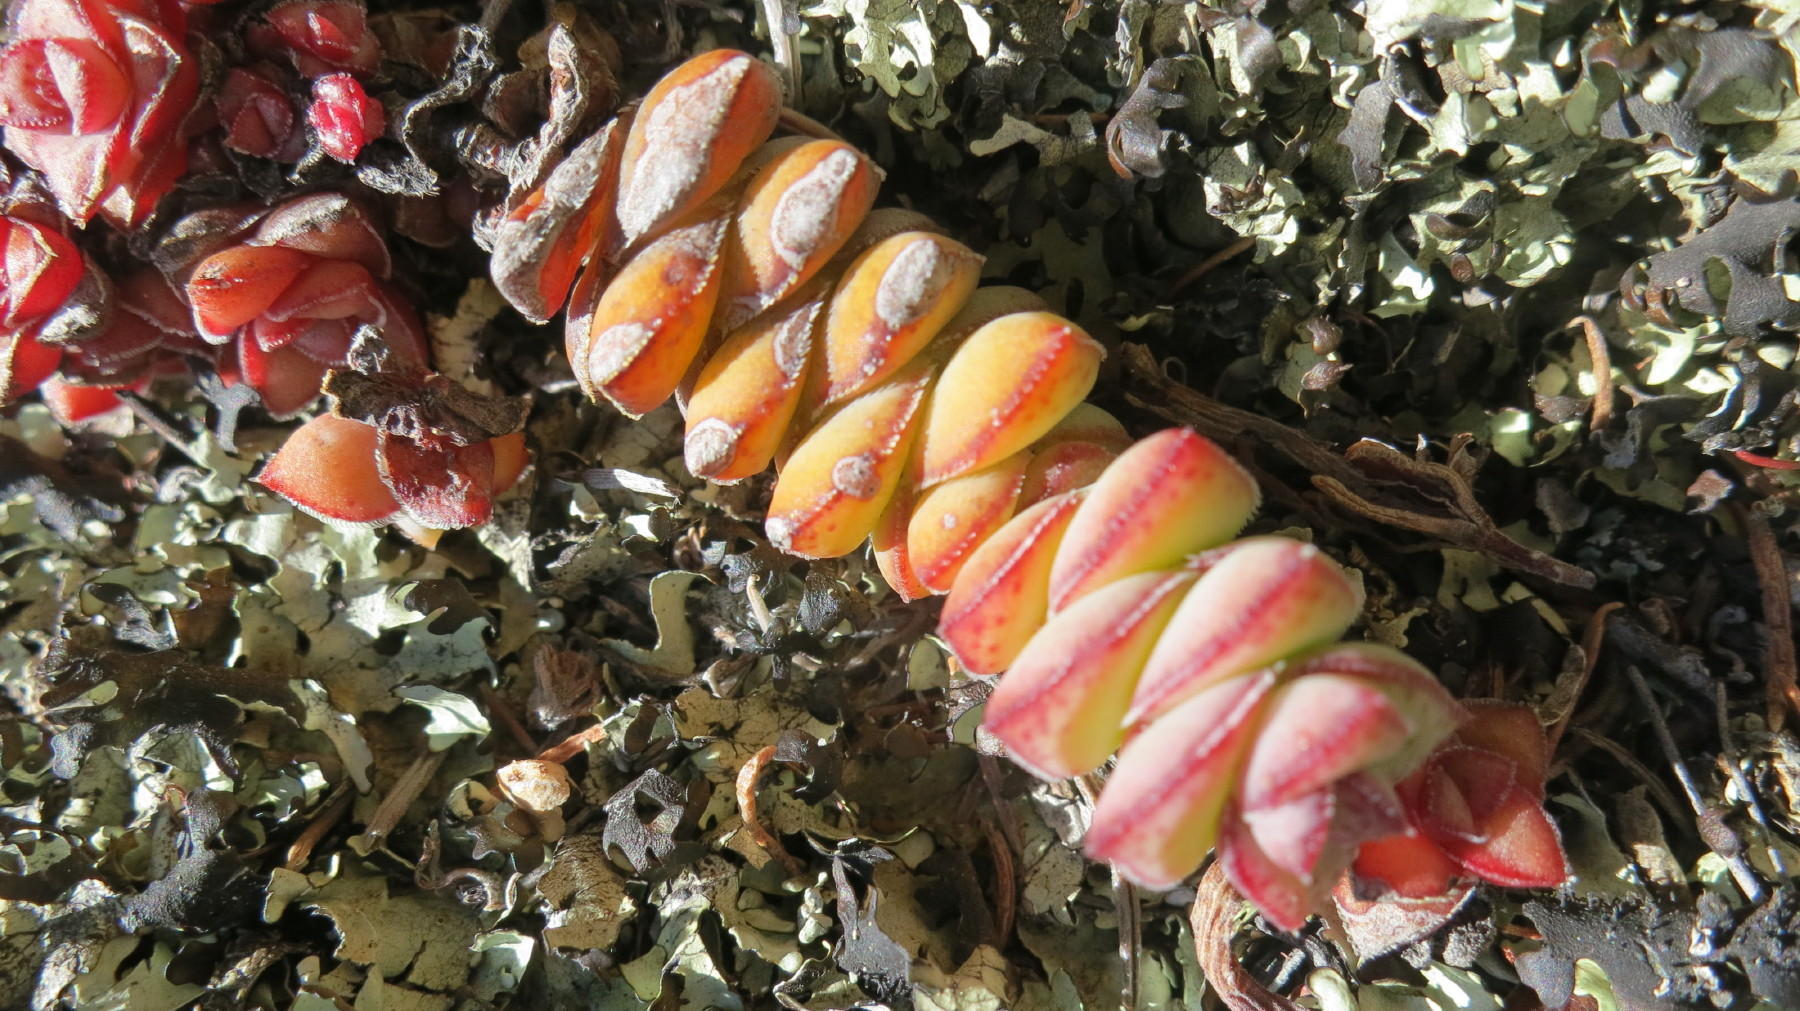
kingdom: Plantae
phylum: Tracheophyta
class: Magnoliopsida
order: Saxifragales
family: Crassulaceae
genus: Crassula
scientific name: Crassula perforata
